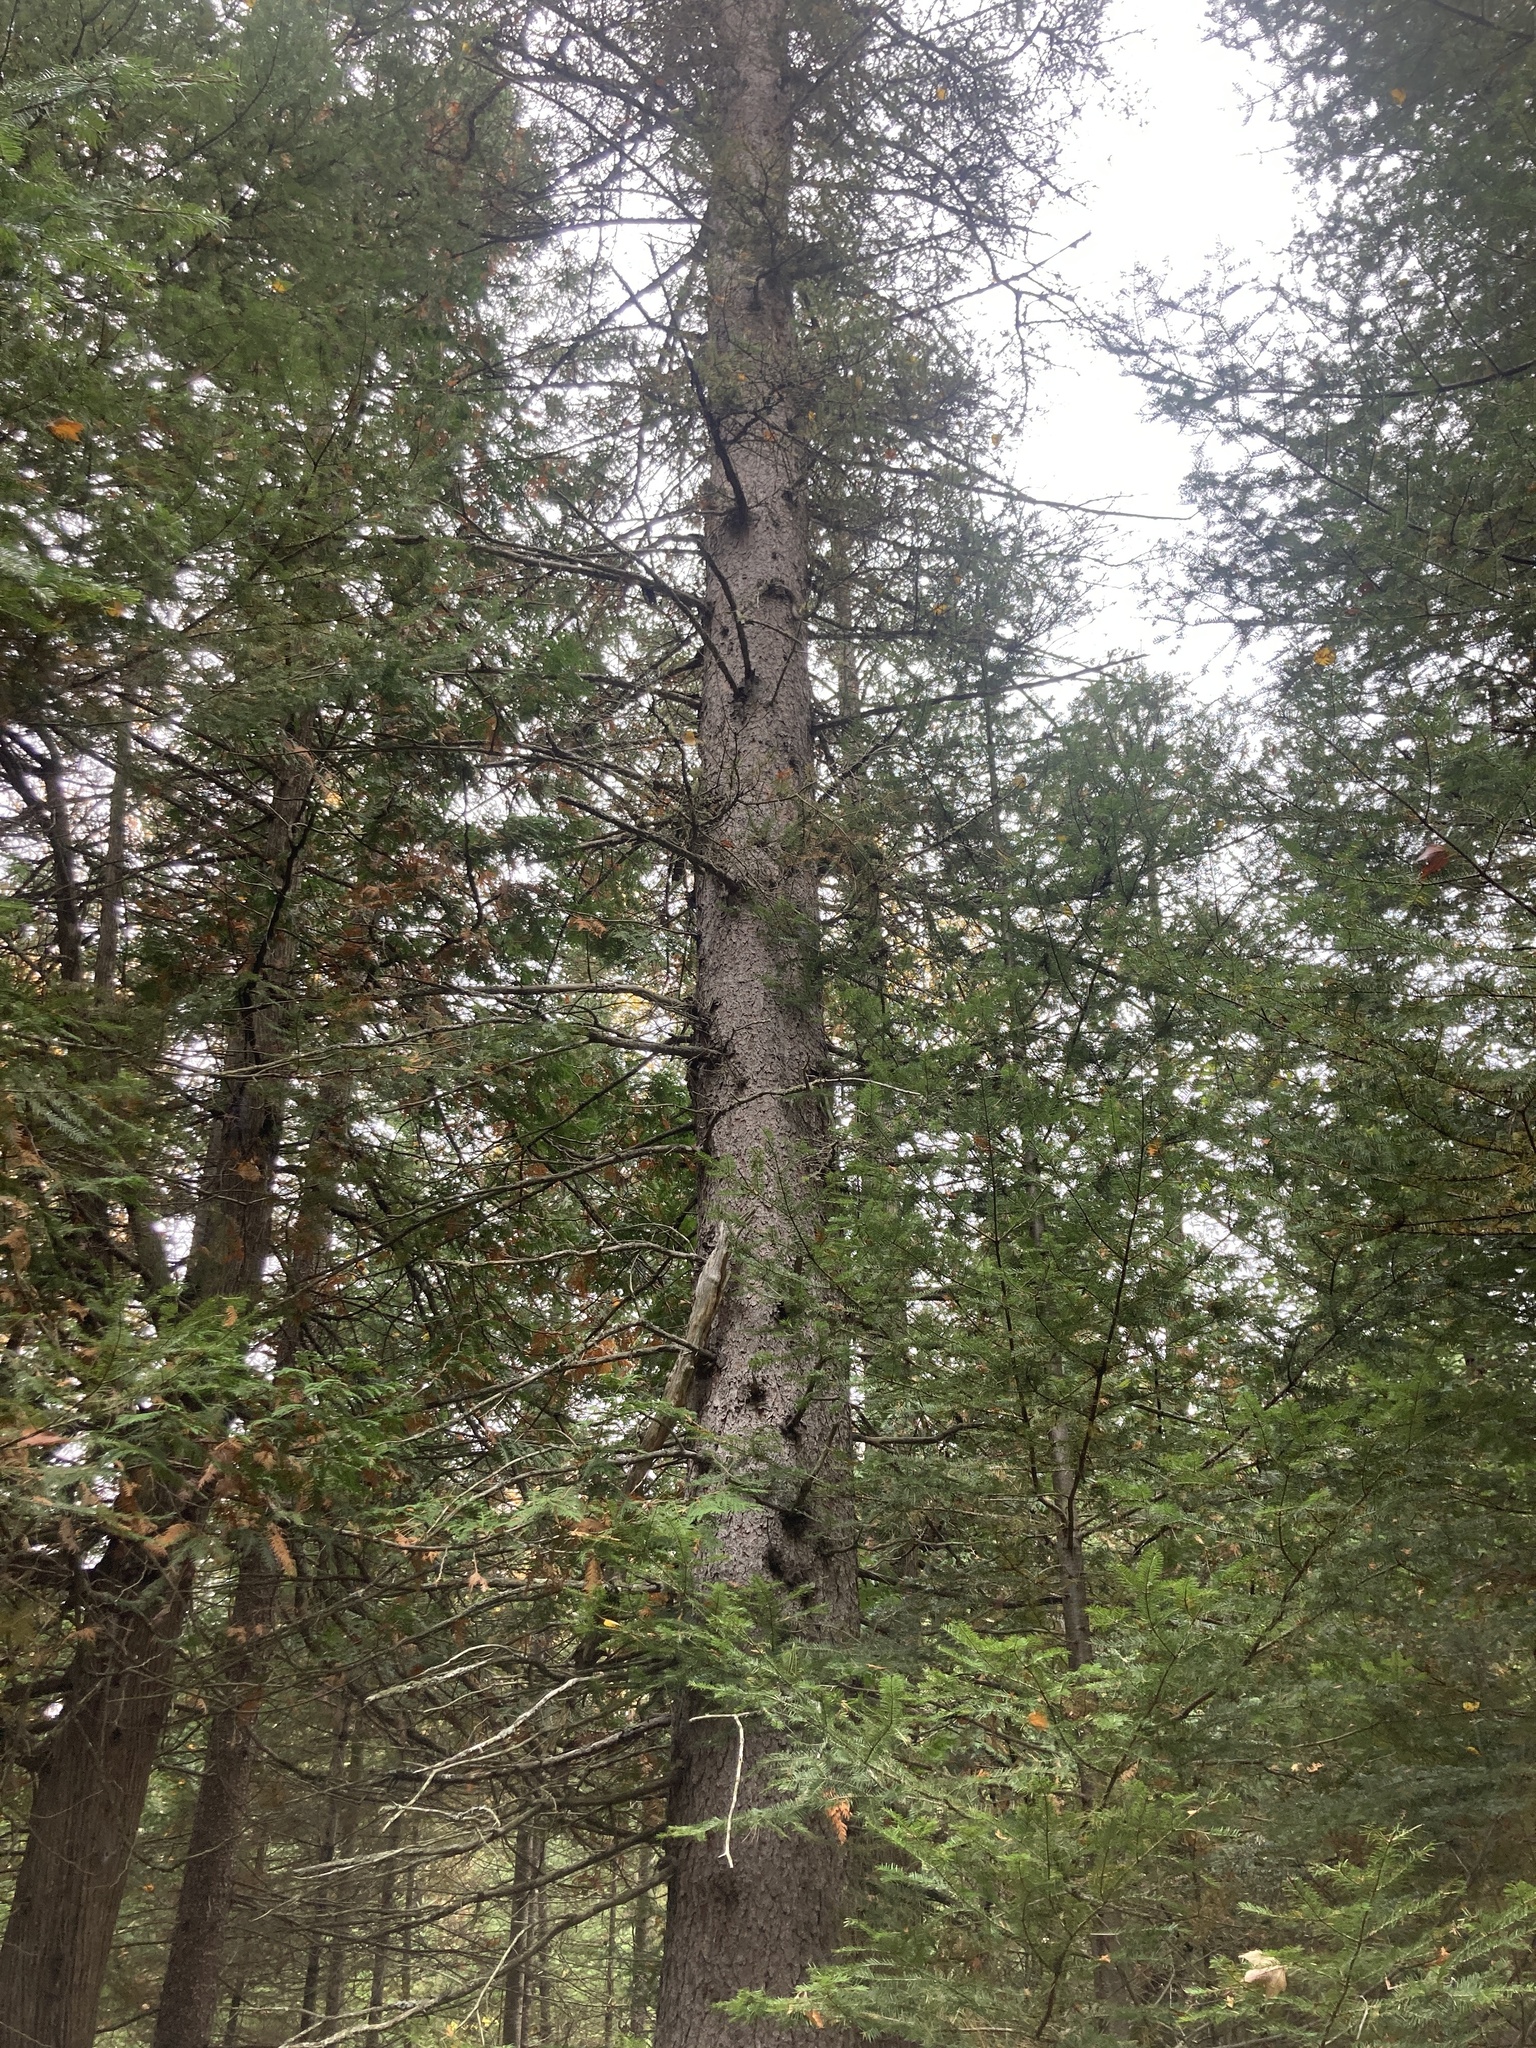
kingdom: Plantae
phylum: Tracheophyta
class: Pinopsida
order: Pinales
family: Pinaceae
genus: Picea
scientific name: Picea glauca
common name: White spruce
